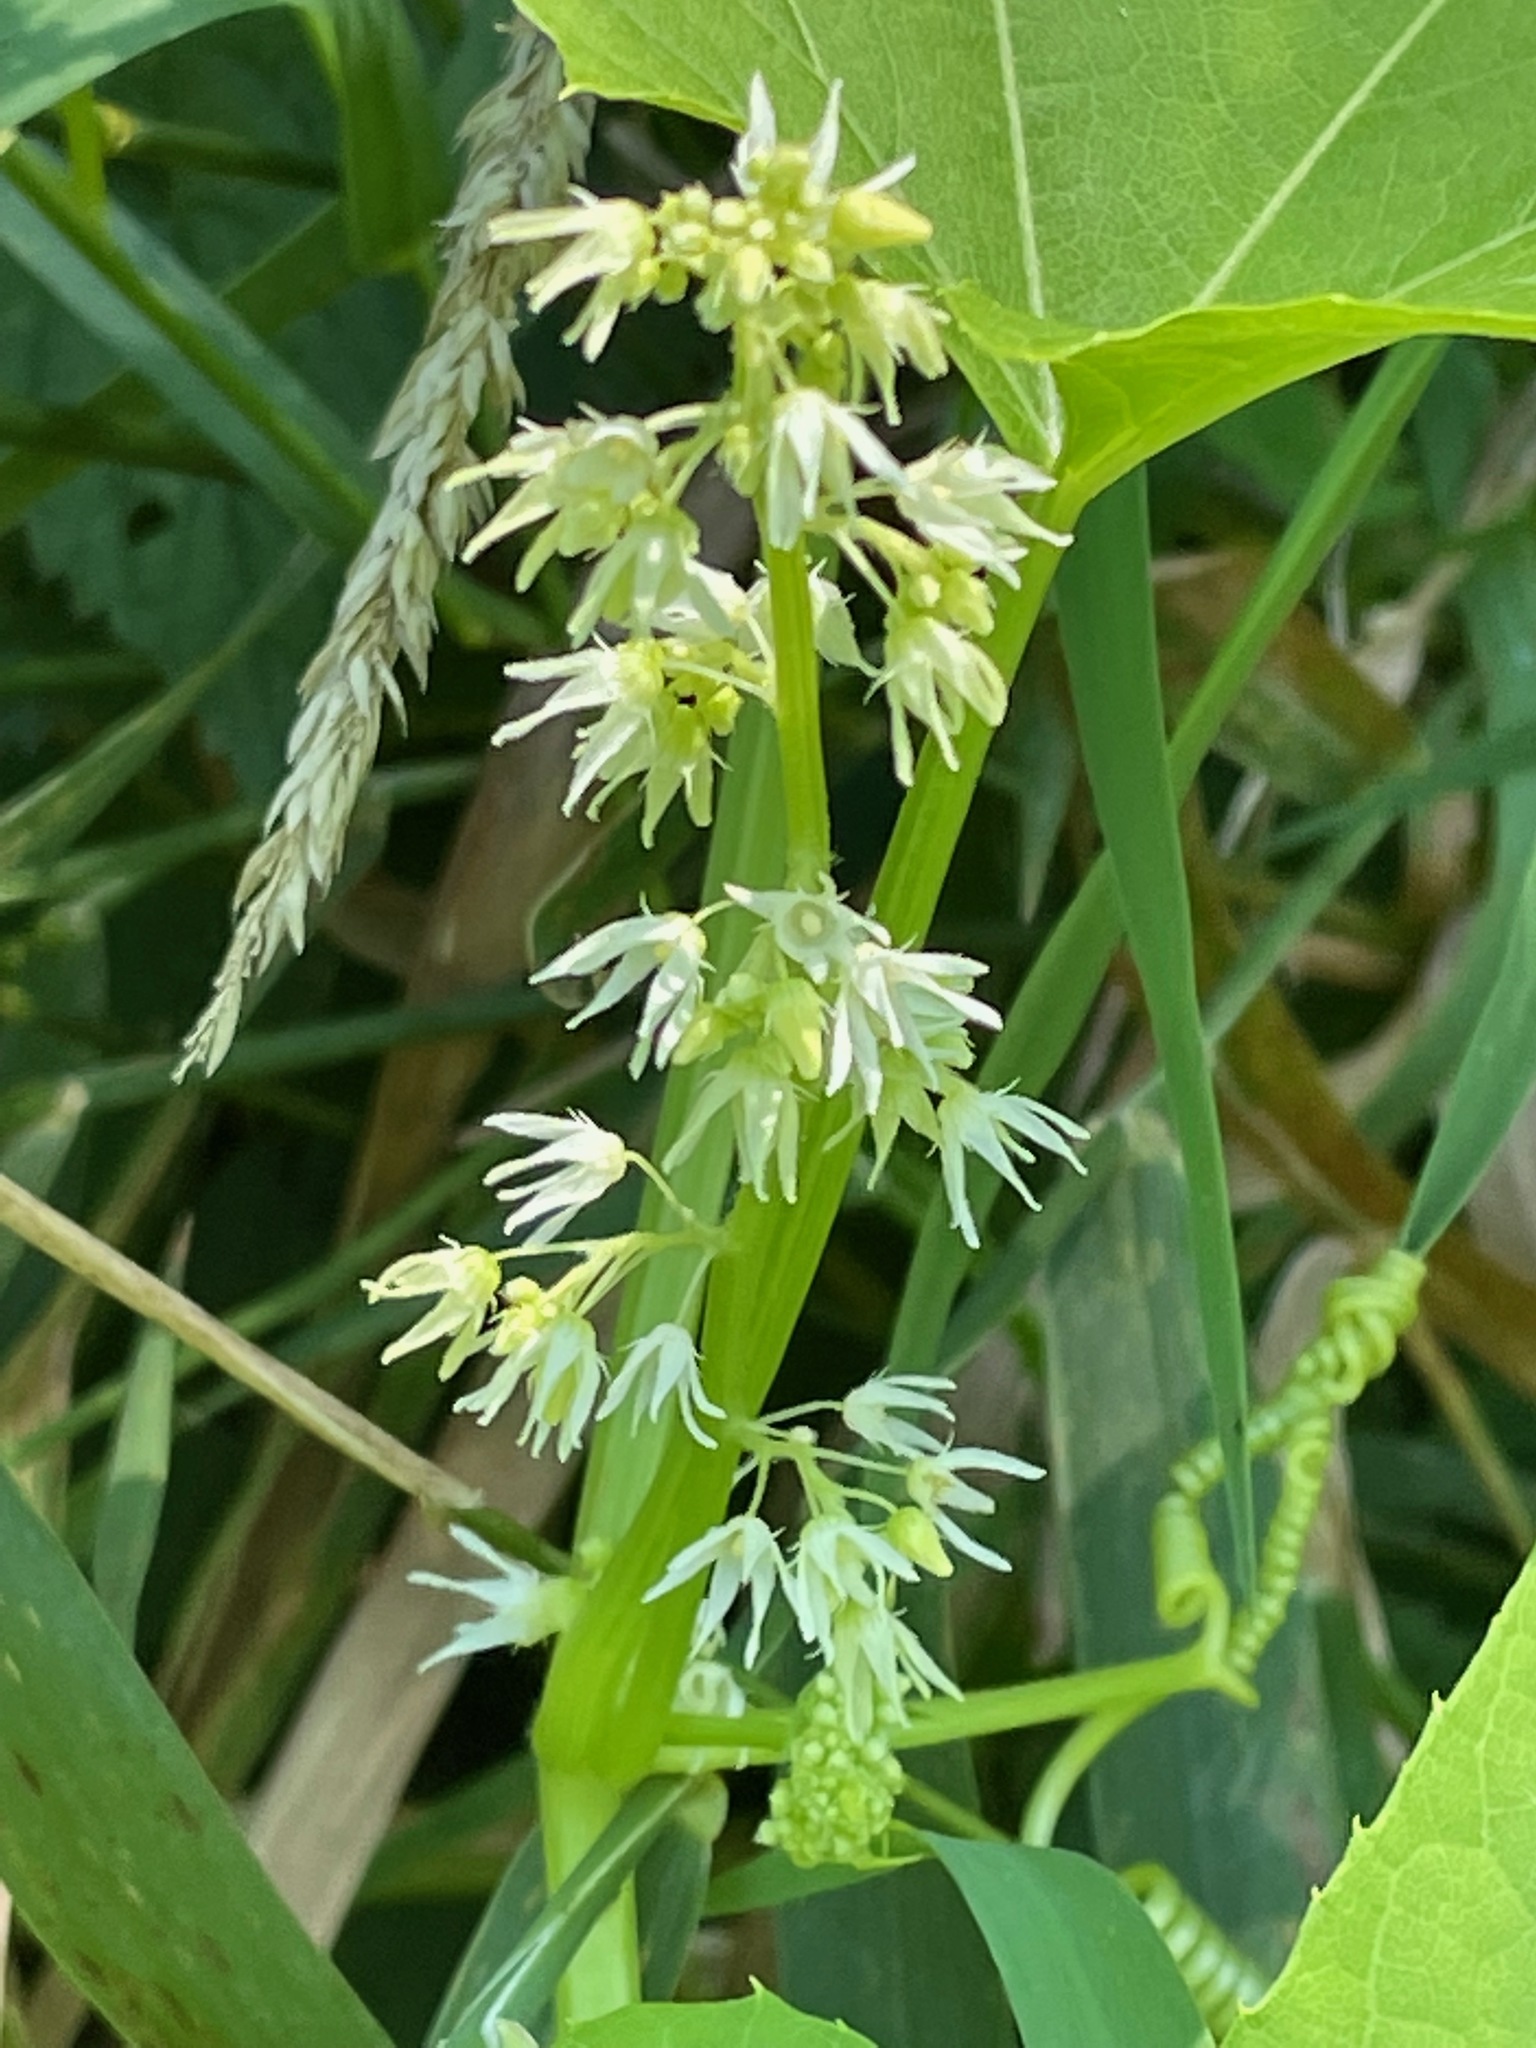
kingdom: Plantae
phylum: Tracheophyta
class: Magnoliopsida
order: Cucurbitales
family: Cucurbitaceae
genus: Echinocystis
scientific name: Echinocystis lobata
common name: Wild cucumber
